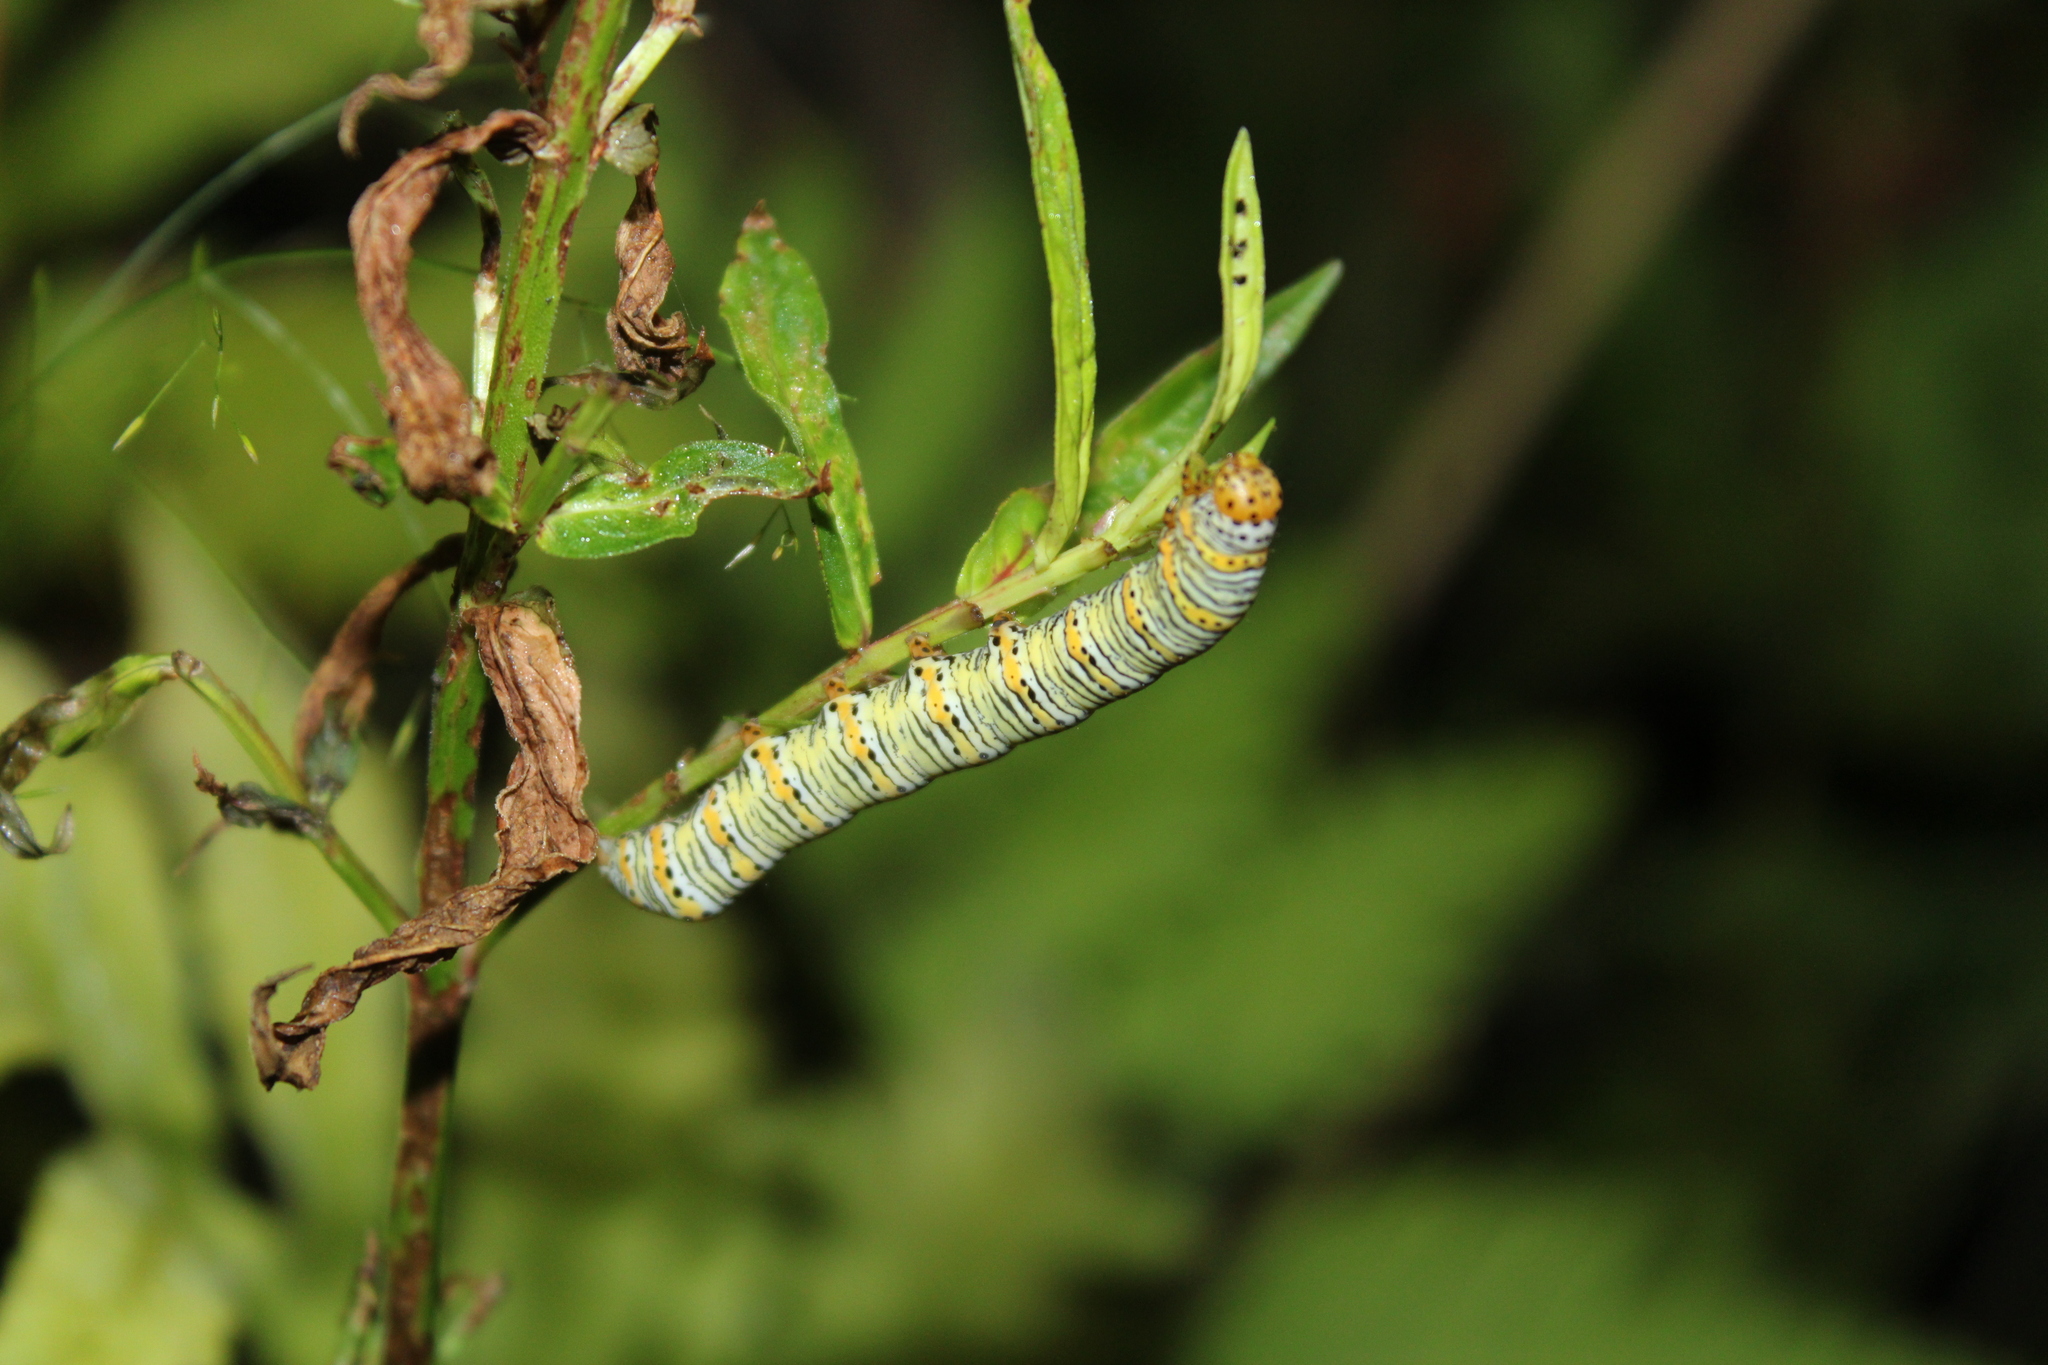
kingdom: Animalia
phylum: Arthropoda
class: Insecta
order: Lepidoptera
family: Noctuidae
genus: Eudryas
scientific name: Eudryas unio
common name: Pearly wood-nymph
